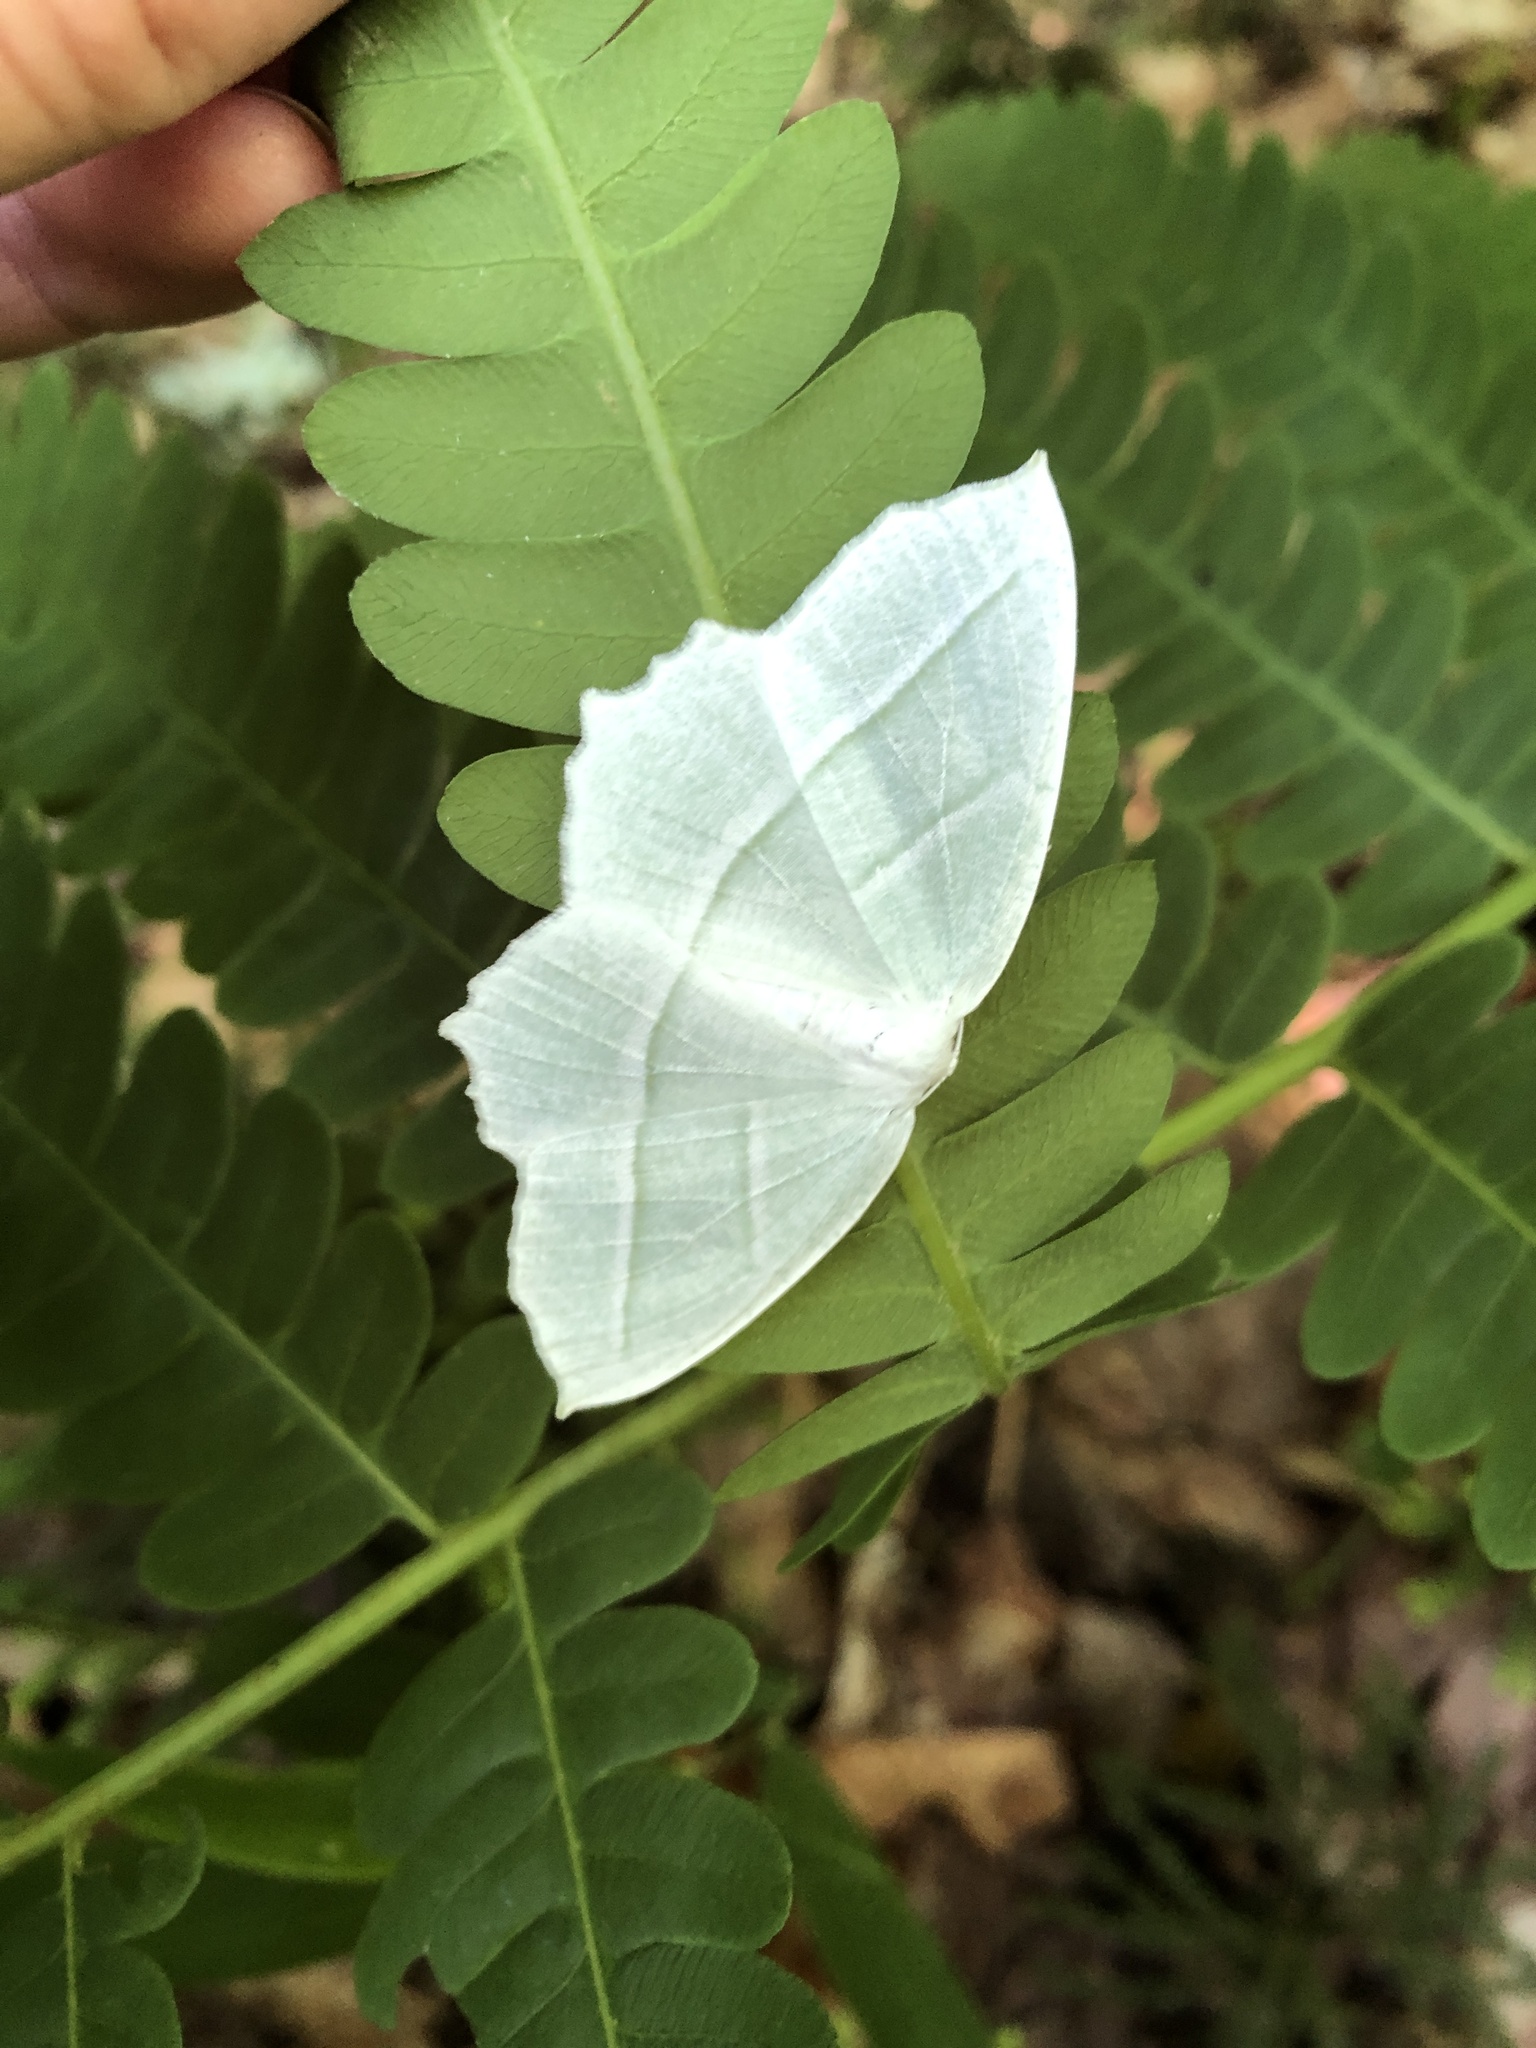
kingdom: Animalia
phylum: Arthropoda
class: Insecta
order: Lepidoptera
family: Geometridae
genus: Campaea
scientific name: Campaea perlata
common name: Fringed looper
